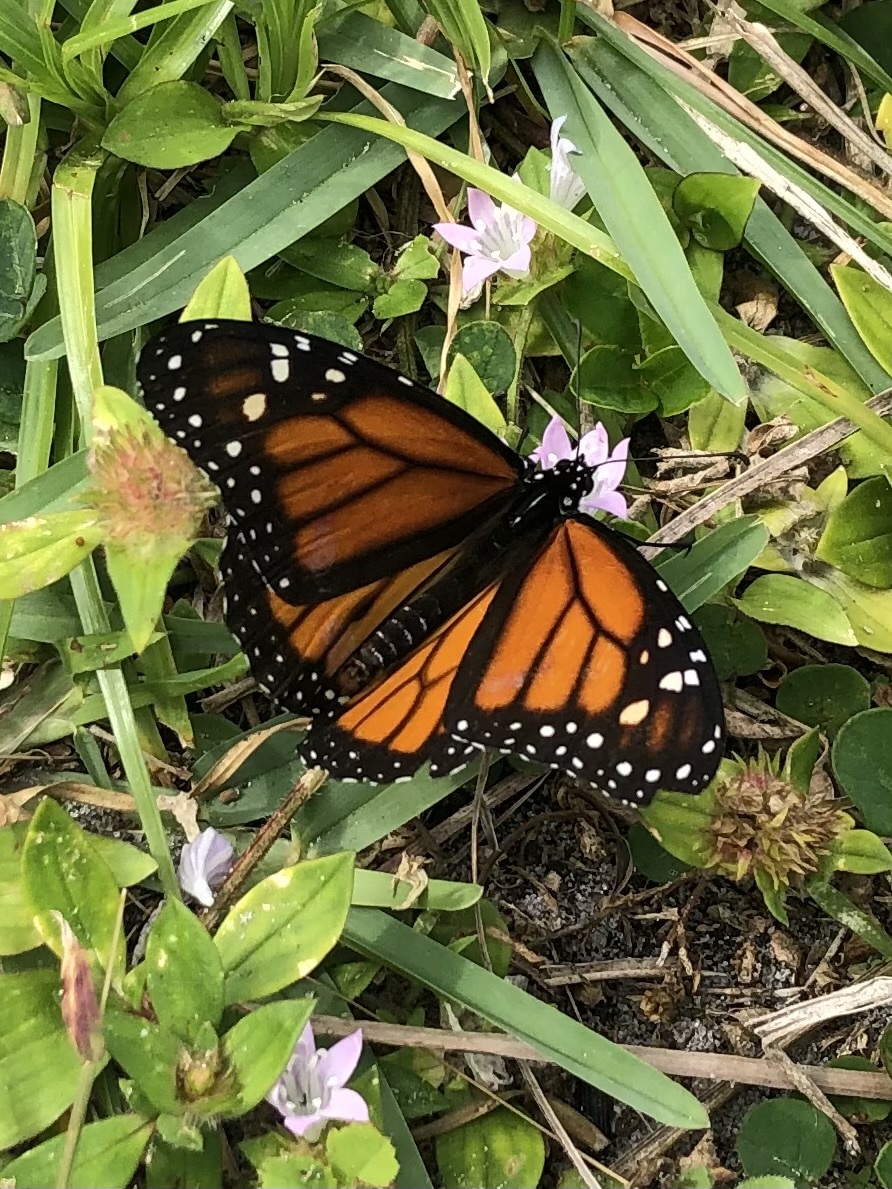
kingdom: Animalia
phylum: Arthropoda
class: Insecta
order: Lepidoptera
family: Nymphalidae
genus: Danaus
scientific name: Danaus plexippus
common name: Monarch
